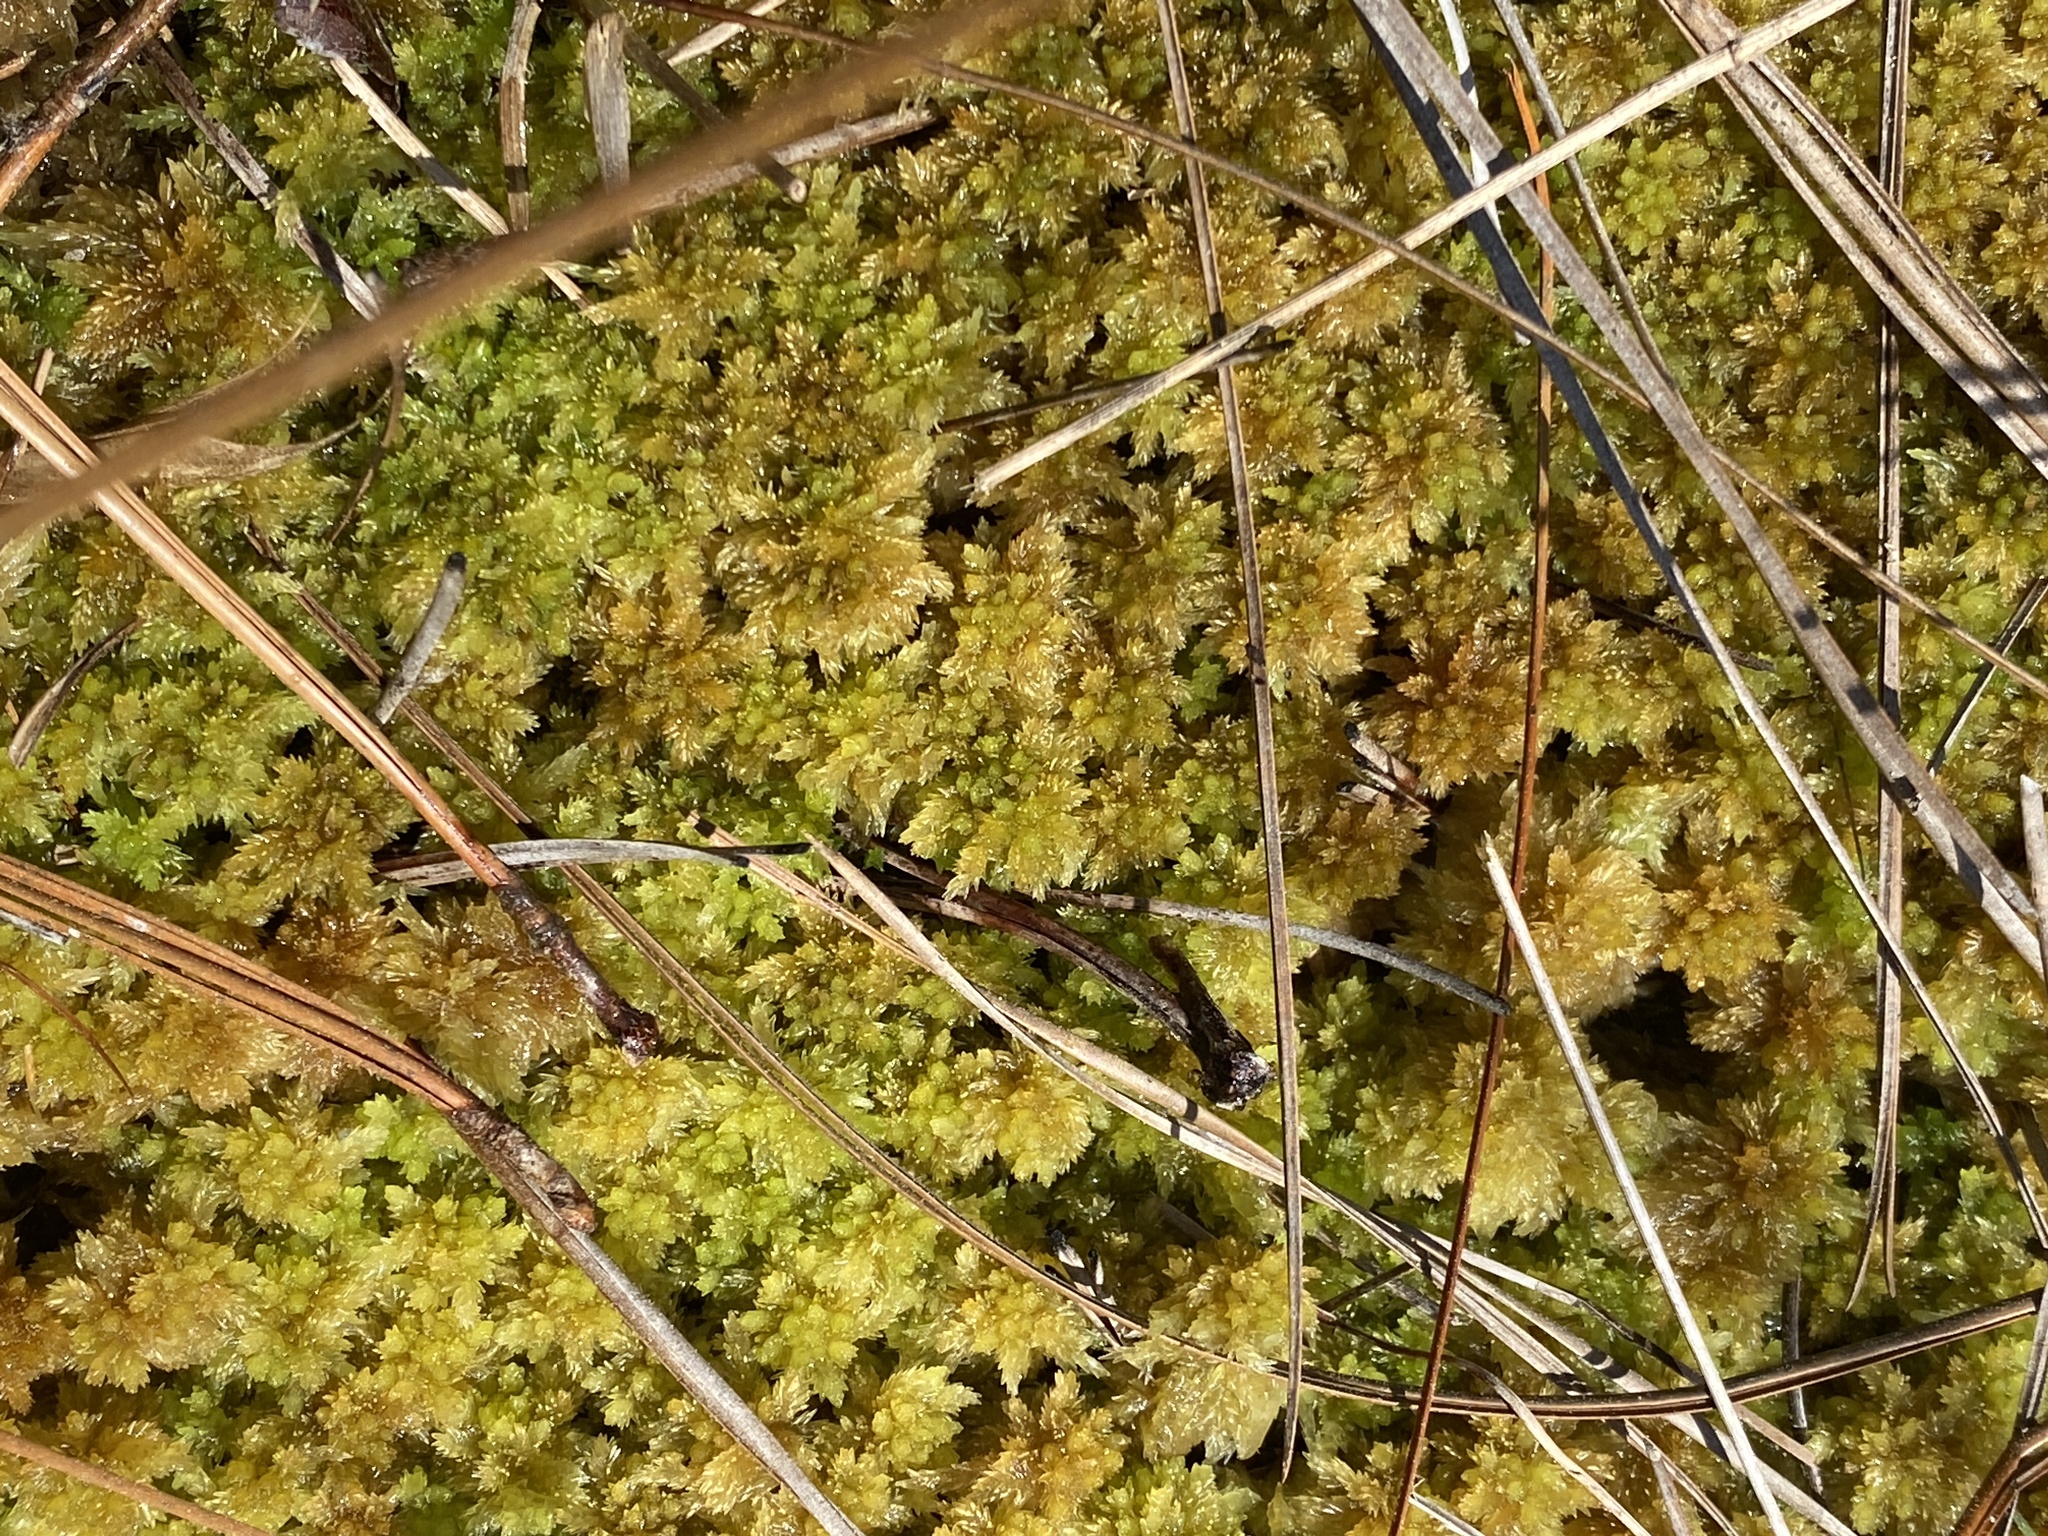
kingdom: Plantae
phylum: Bryophyta
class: Sphagnopsida
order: Sphagnales
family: Sphagnaceae
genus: Sphagnum
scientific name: Sphagnum compactum
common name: Compact peat moss
